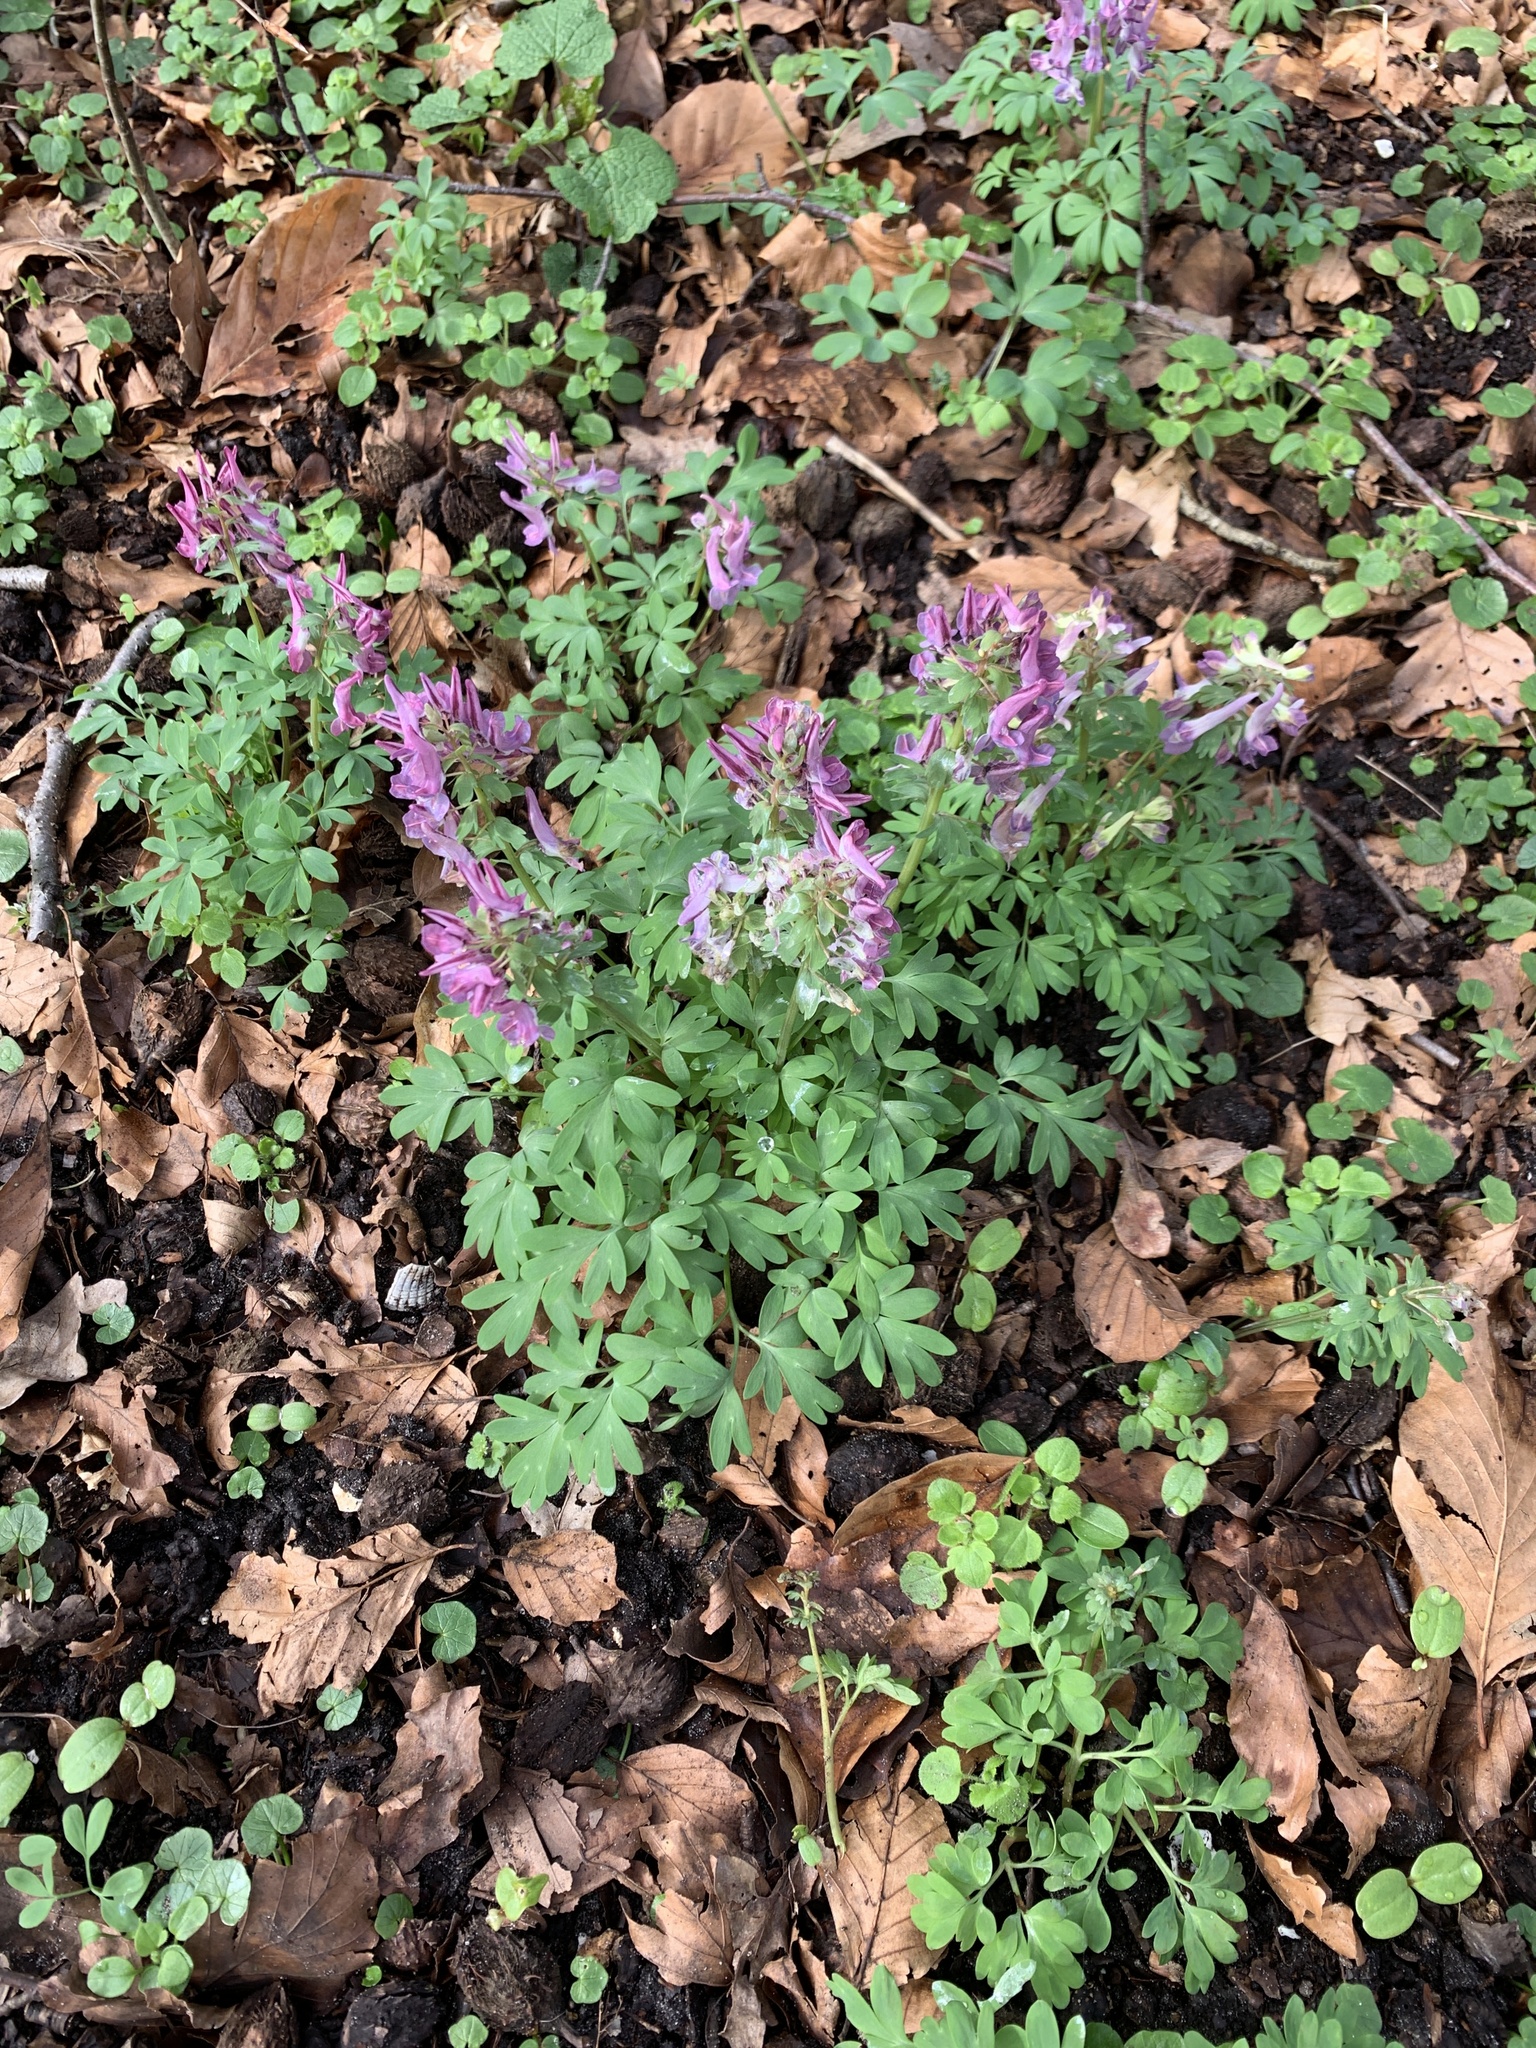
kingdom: Plantae
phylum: Tracheophyta
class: Magnoliopsida
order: Ranunculales
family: Papaveraceae
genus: Corydalis
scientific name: Corydalis solida
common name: Bird-in-a-bush
